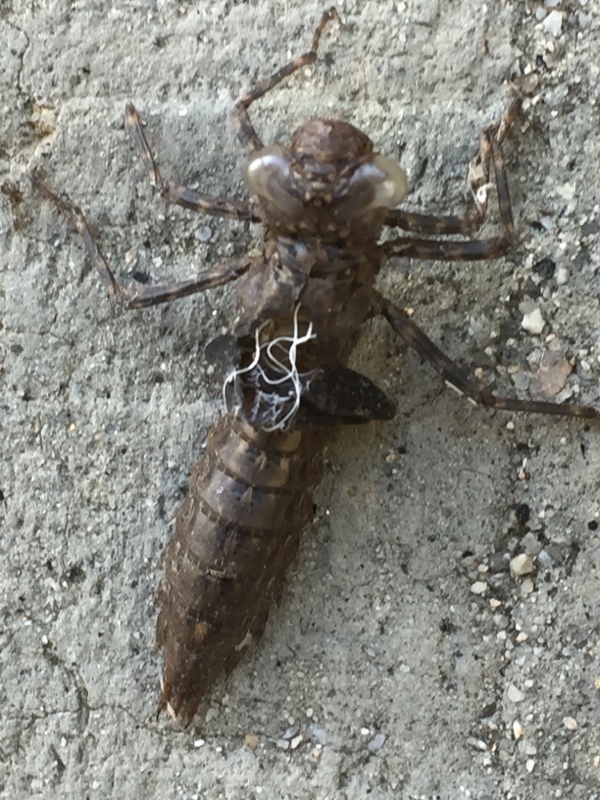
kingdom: Animalia
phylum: Arthropoda
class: Insecta
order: Odonata
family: Aeshnidae
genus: Boyeria
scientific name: Boyeria irene
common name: Western spectre
